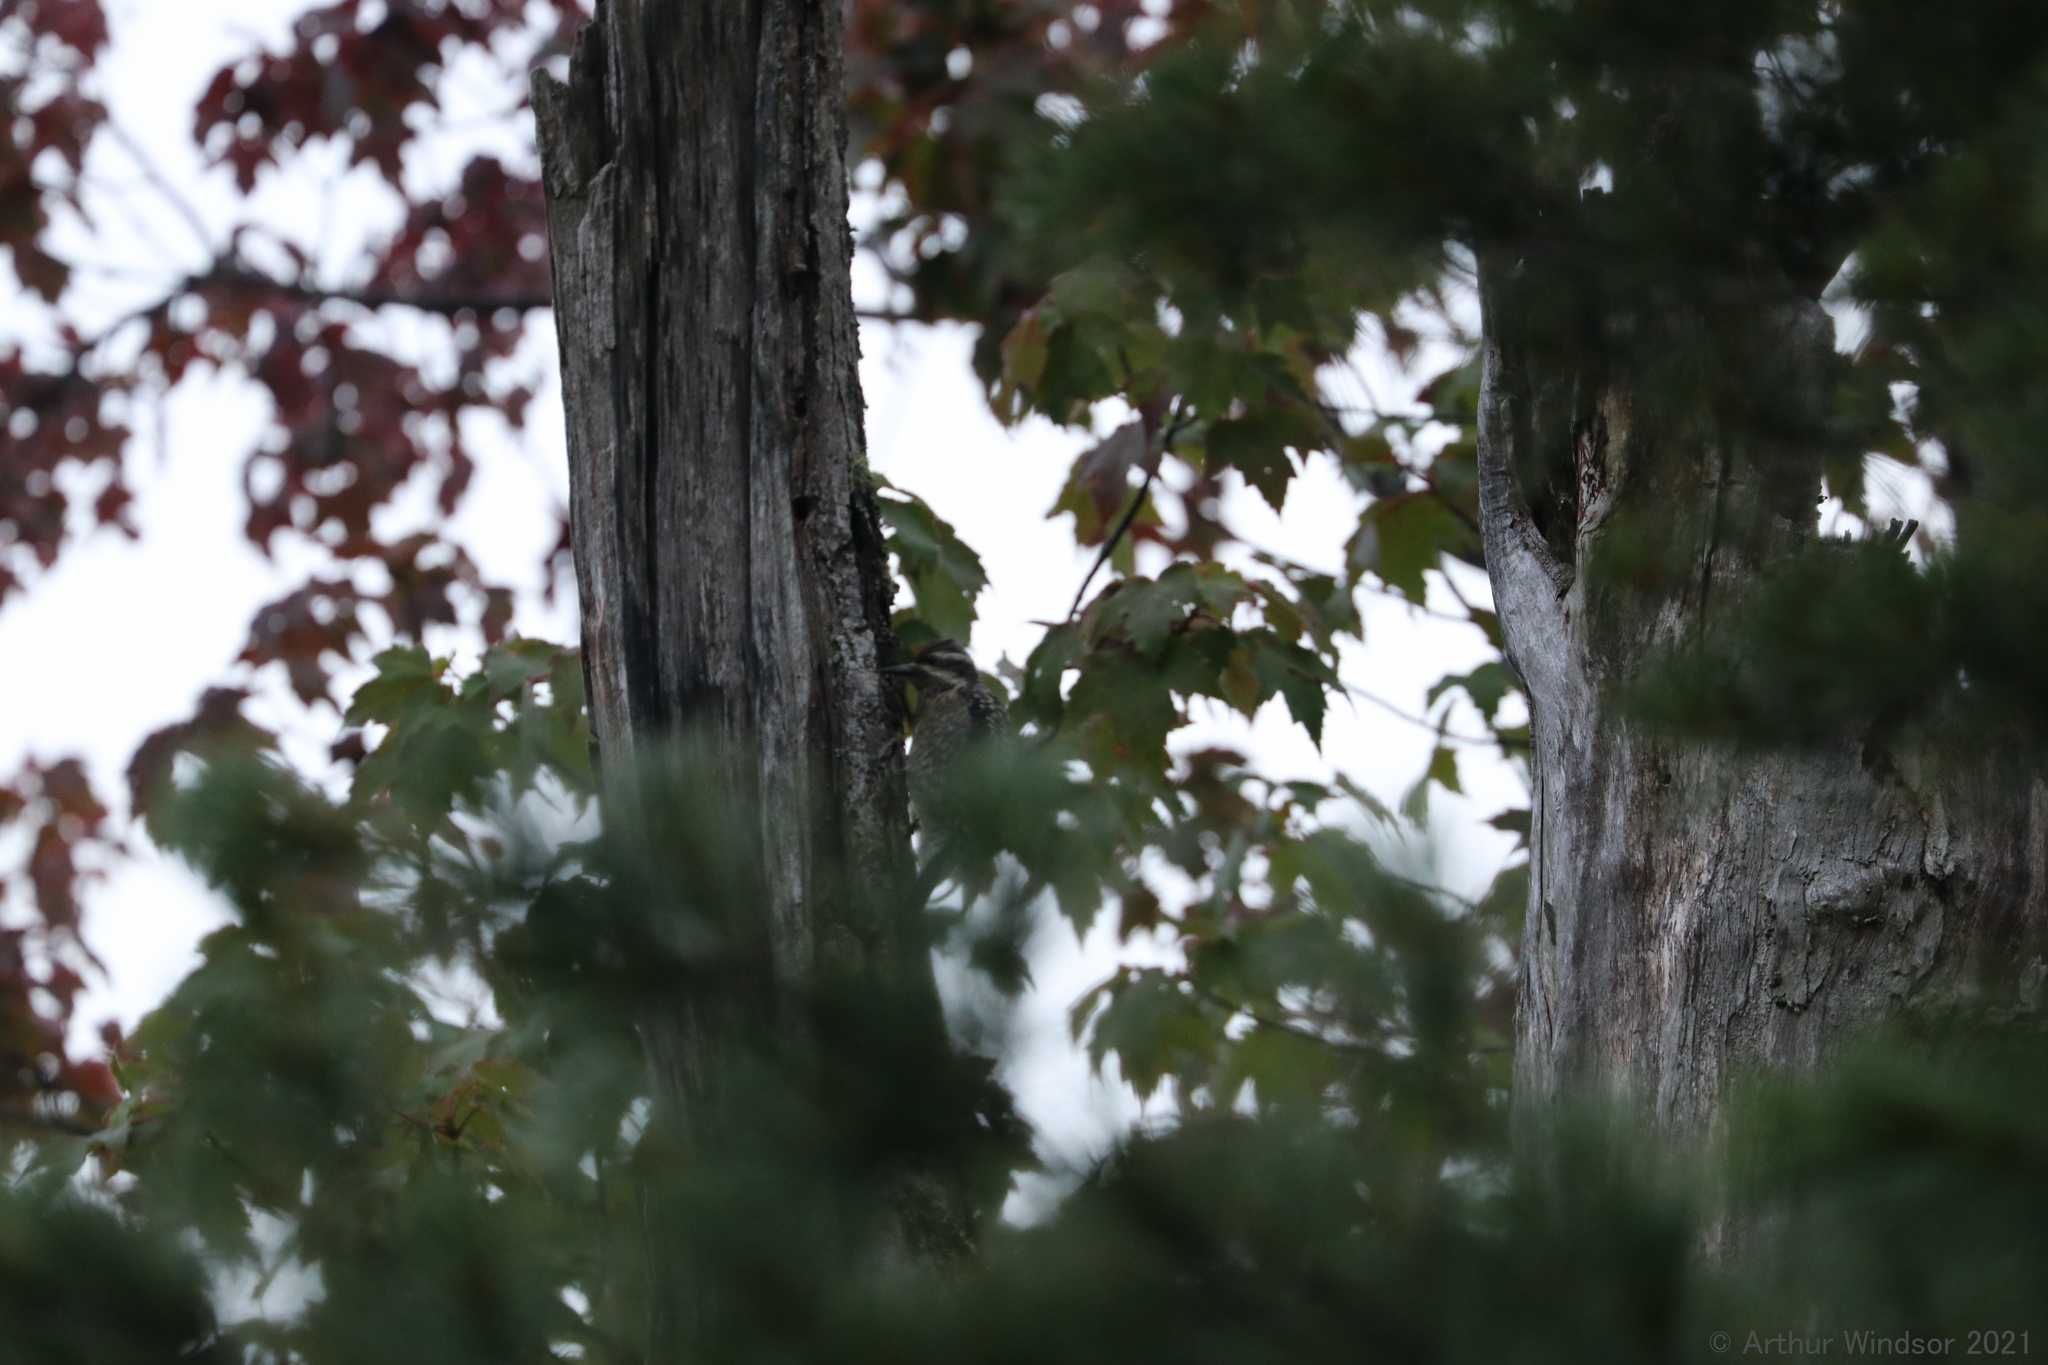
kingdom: Animalia
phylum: Chordata
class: Aves
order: Piciformes
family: Picidae
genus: Sphyrapicus
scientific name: Sphyrapicus varius
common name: Yellow-bellied sapsucker
